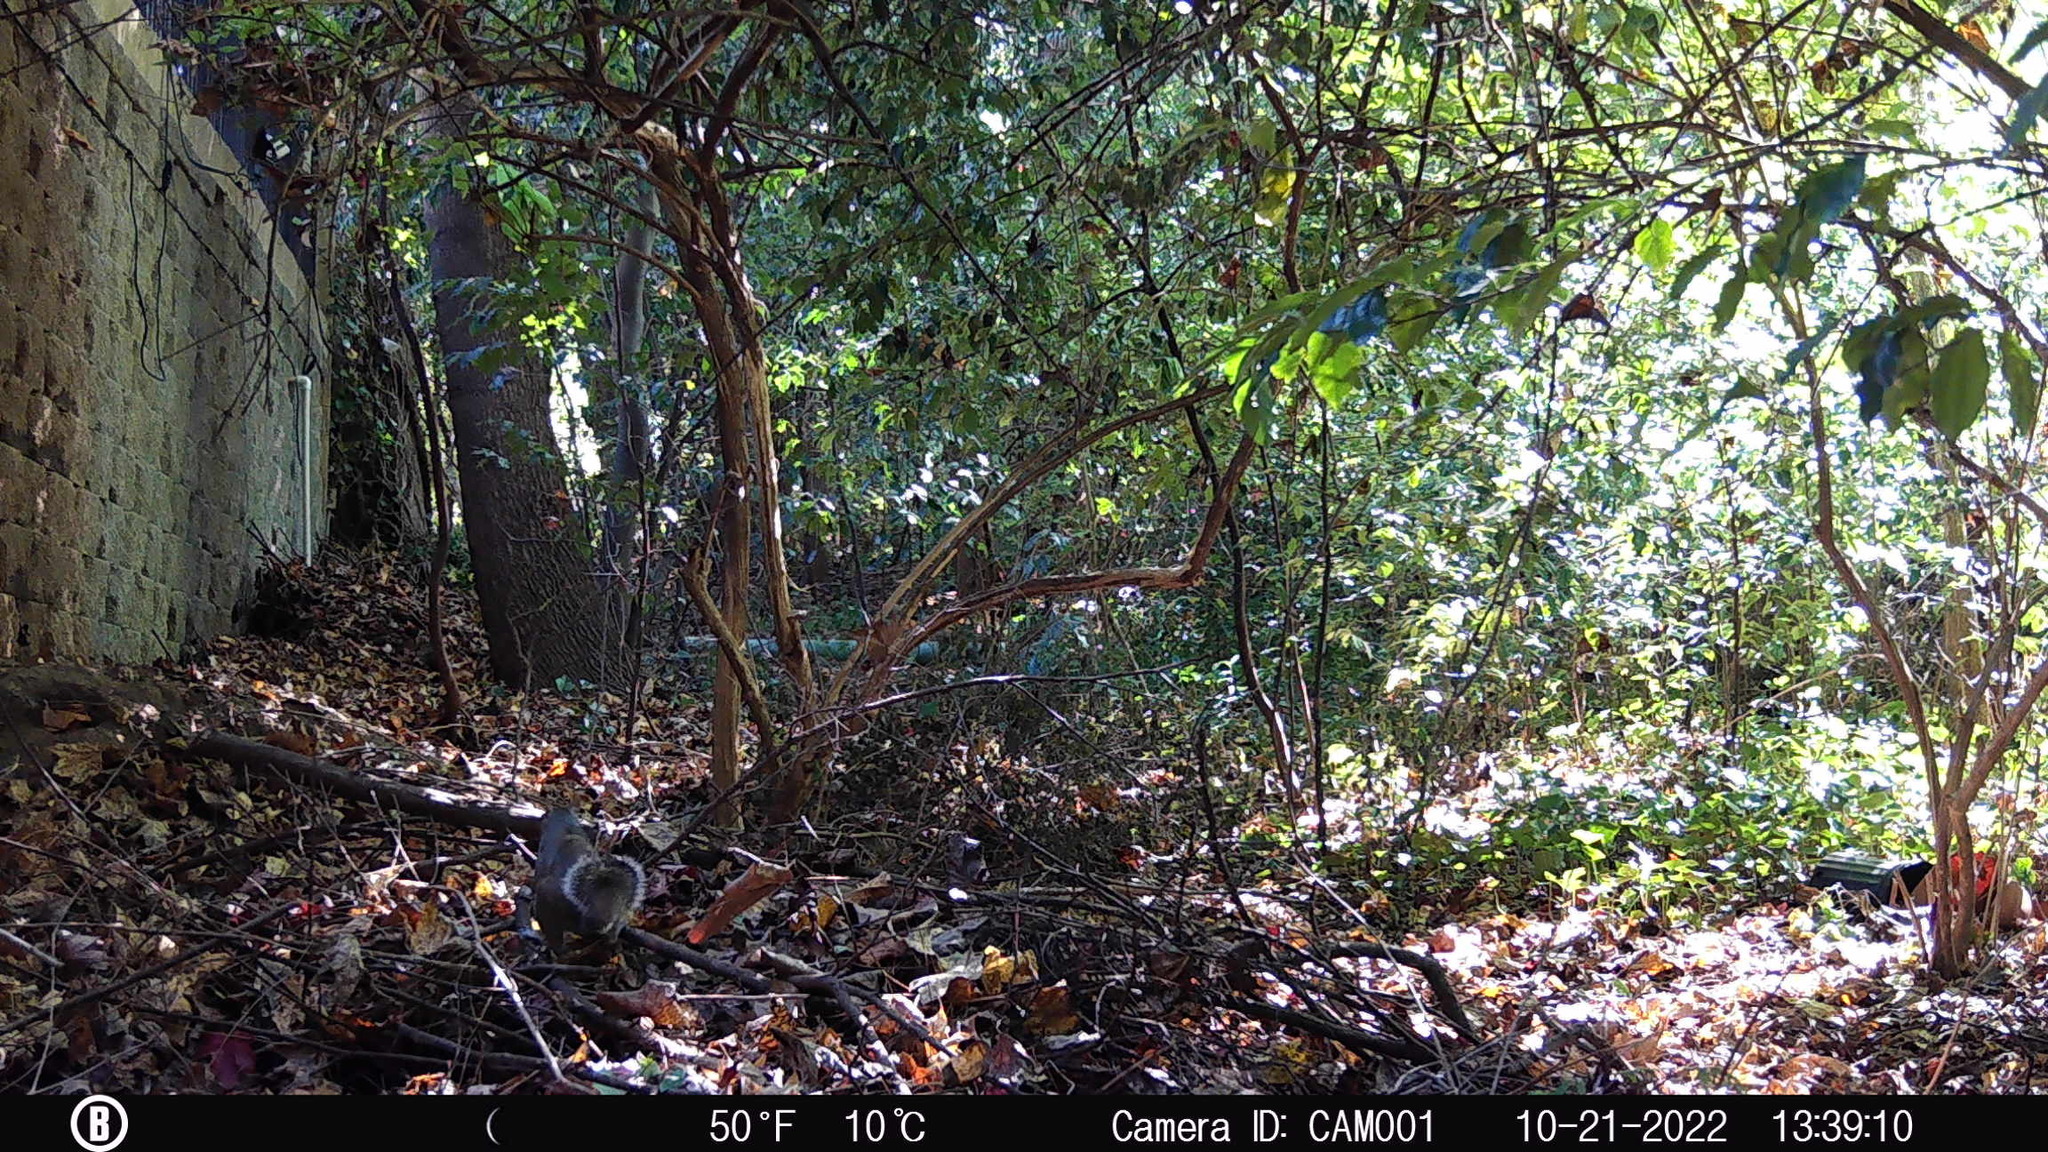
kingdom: Animalia
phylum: Chordata
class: Mammalia
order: Rodentia
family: Sciuridae
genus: Sciurus
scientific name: Sciurus carolinensis
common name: Eastern gray squirrel
